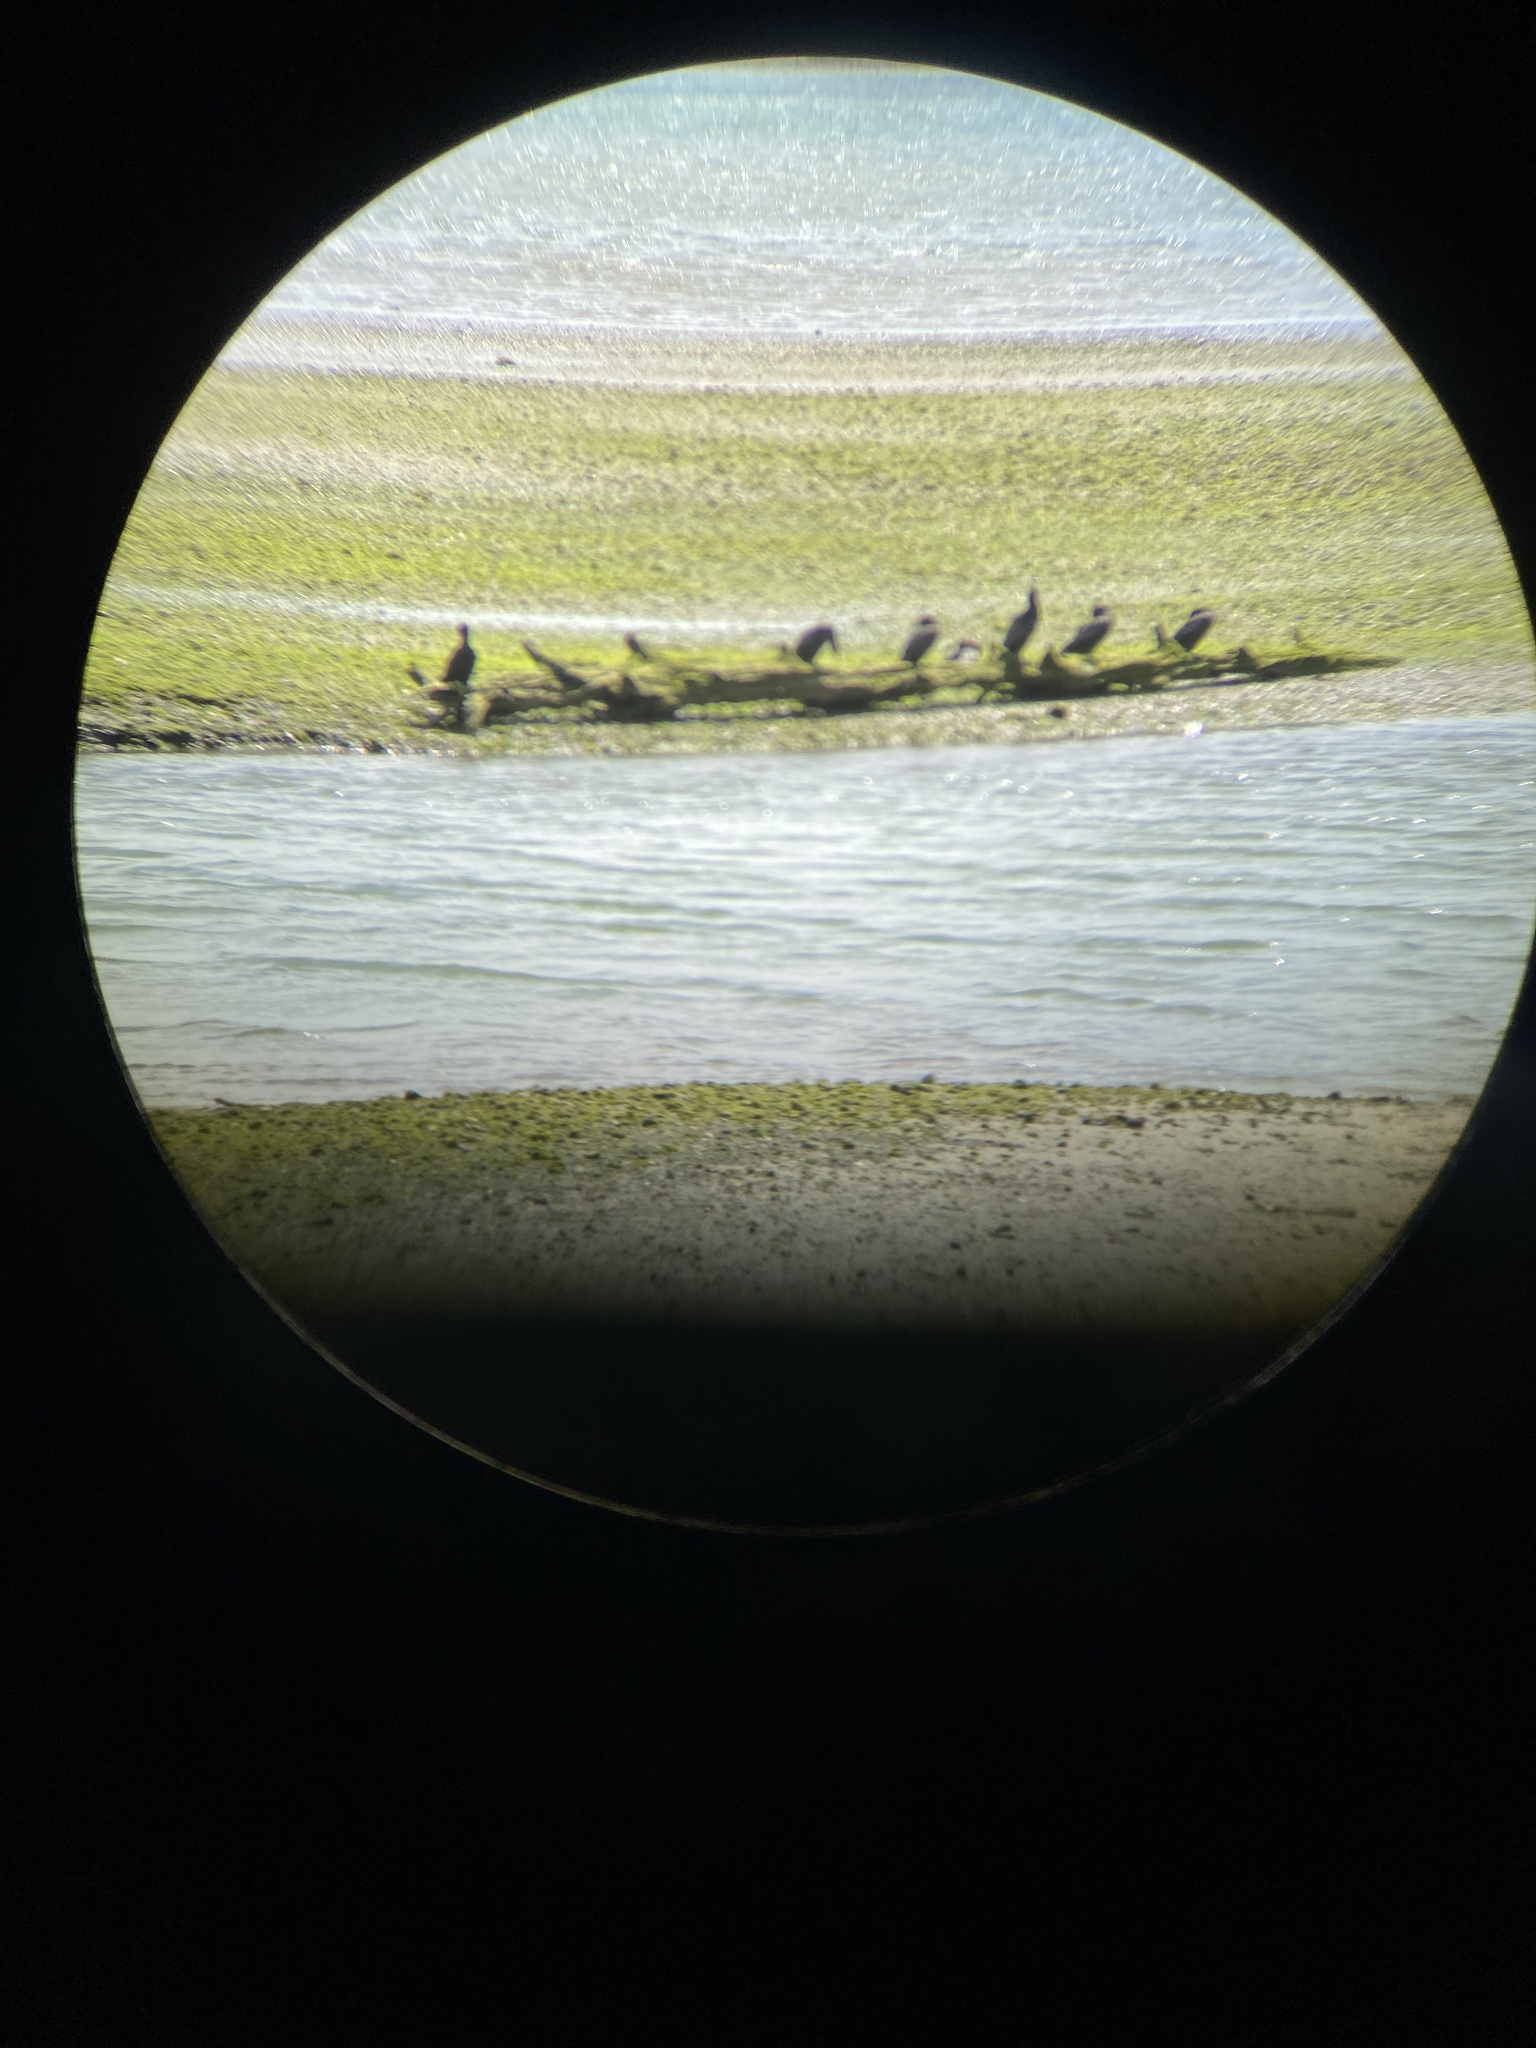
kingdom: Animalia
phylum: Chordata
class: Aves
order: Suliformes
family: Phalacrocoracidae
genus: Phalacrocorax
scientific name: Phalacrocorax sulcirostris
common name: Little black cormorant
